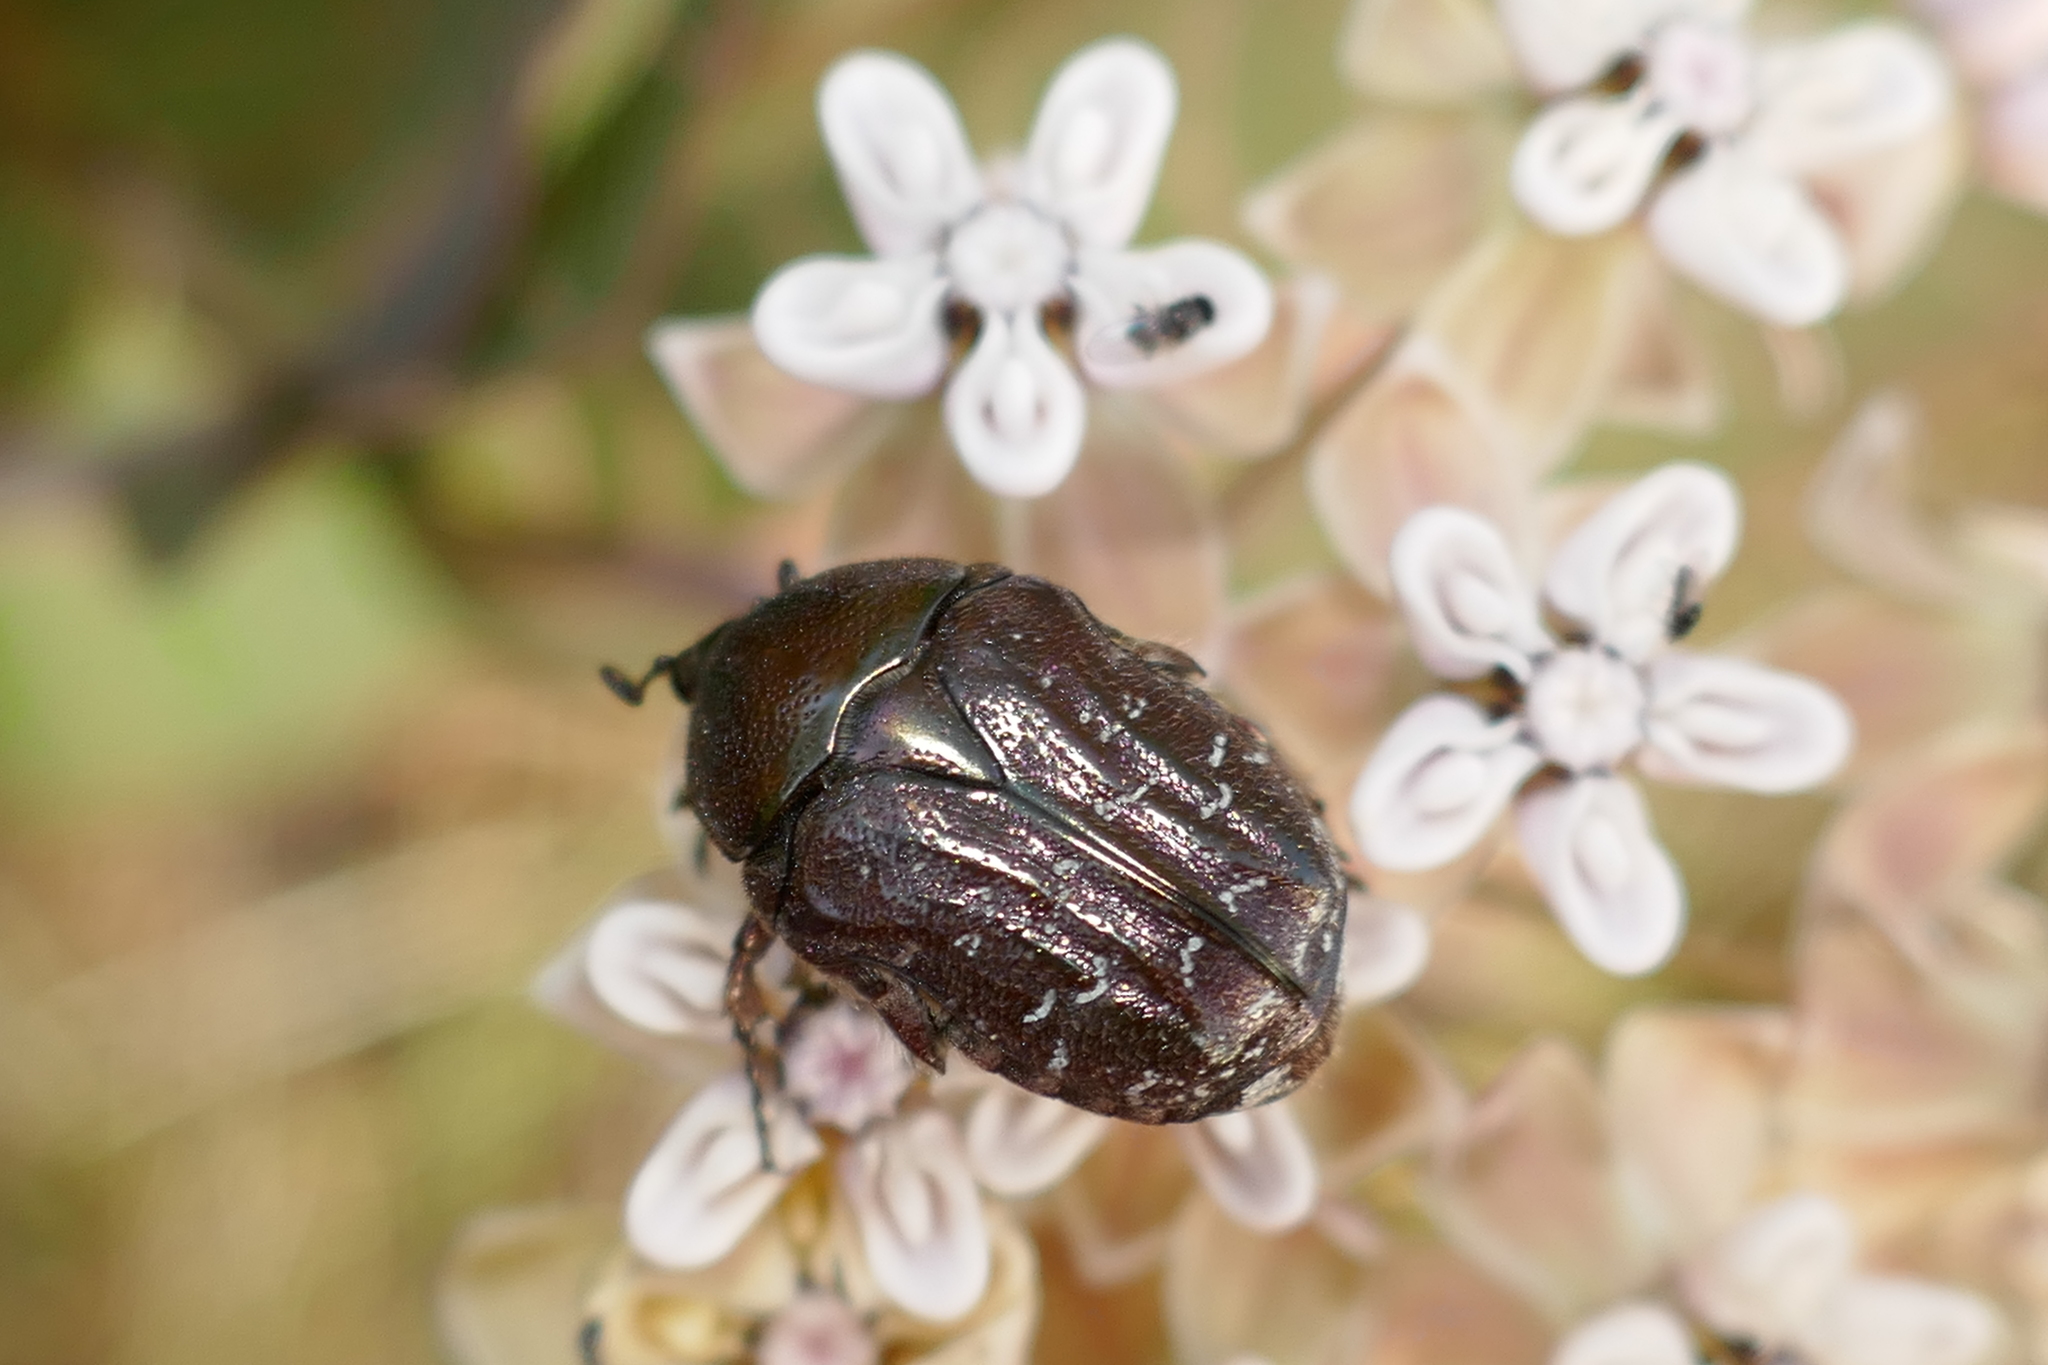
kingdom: Animalia
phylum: Arthropoda
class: Insecta
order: Coleoptera
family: Scarabaeidae
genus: Euphoria
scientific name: Euphoria sepulcralis
